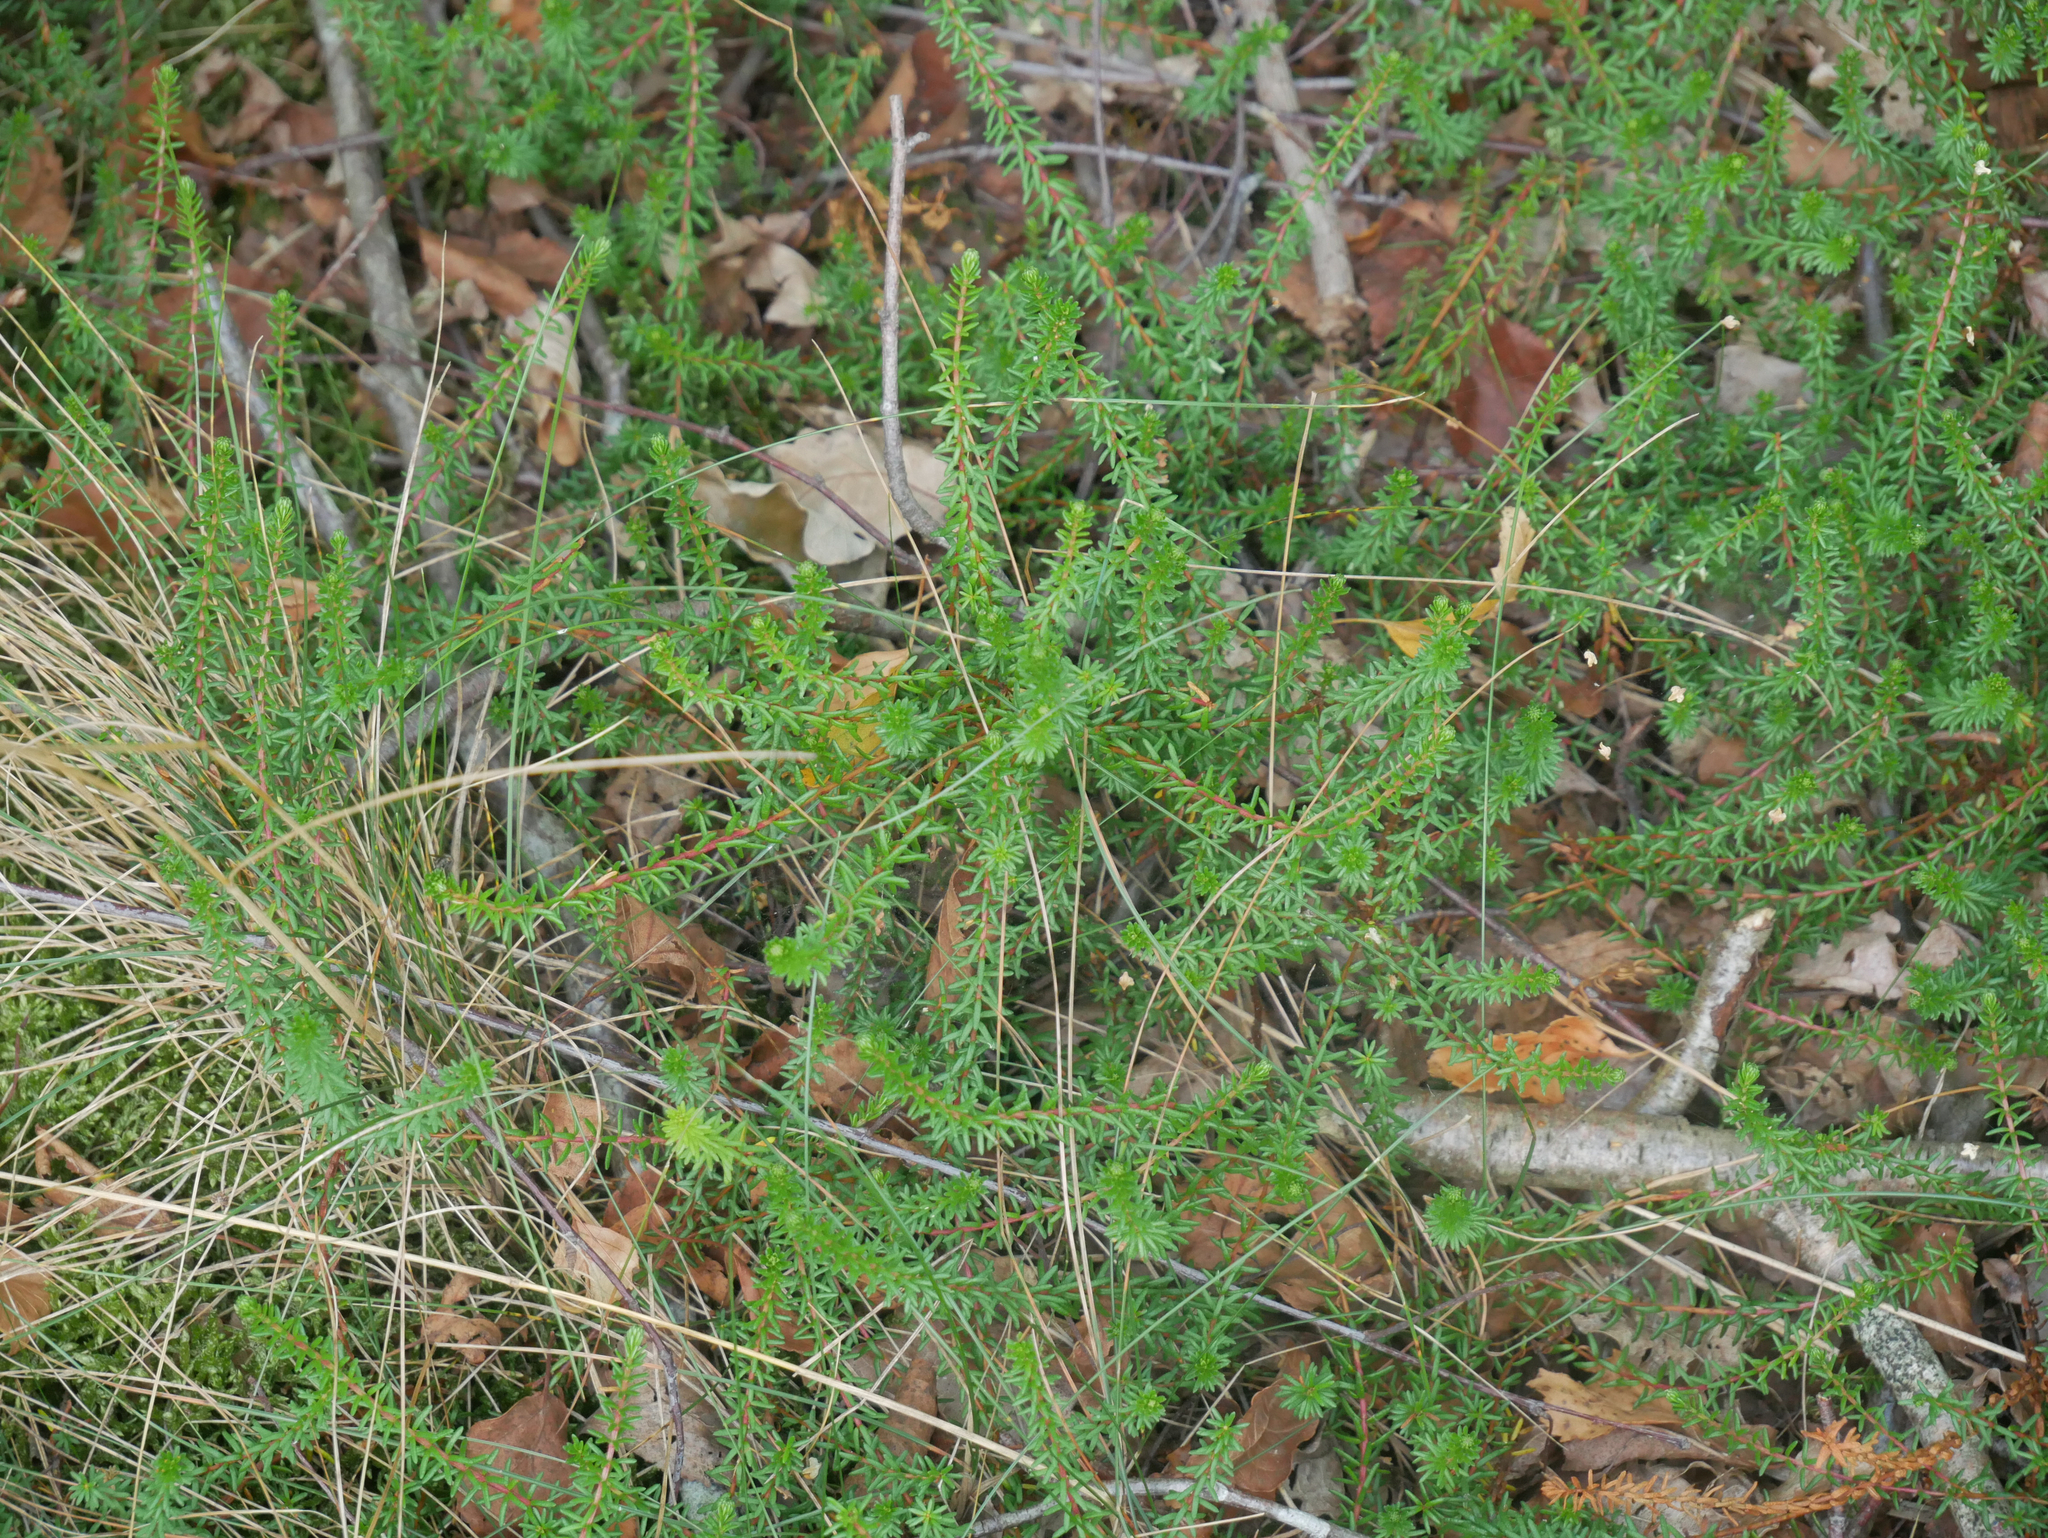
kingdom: Plantae
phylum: Tracheophyta
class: Magnoliopsida
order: Ericales
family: Ericaceae
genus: Empetrum
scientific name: Empetrum nigrum
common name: Black crowberry
